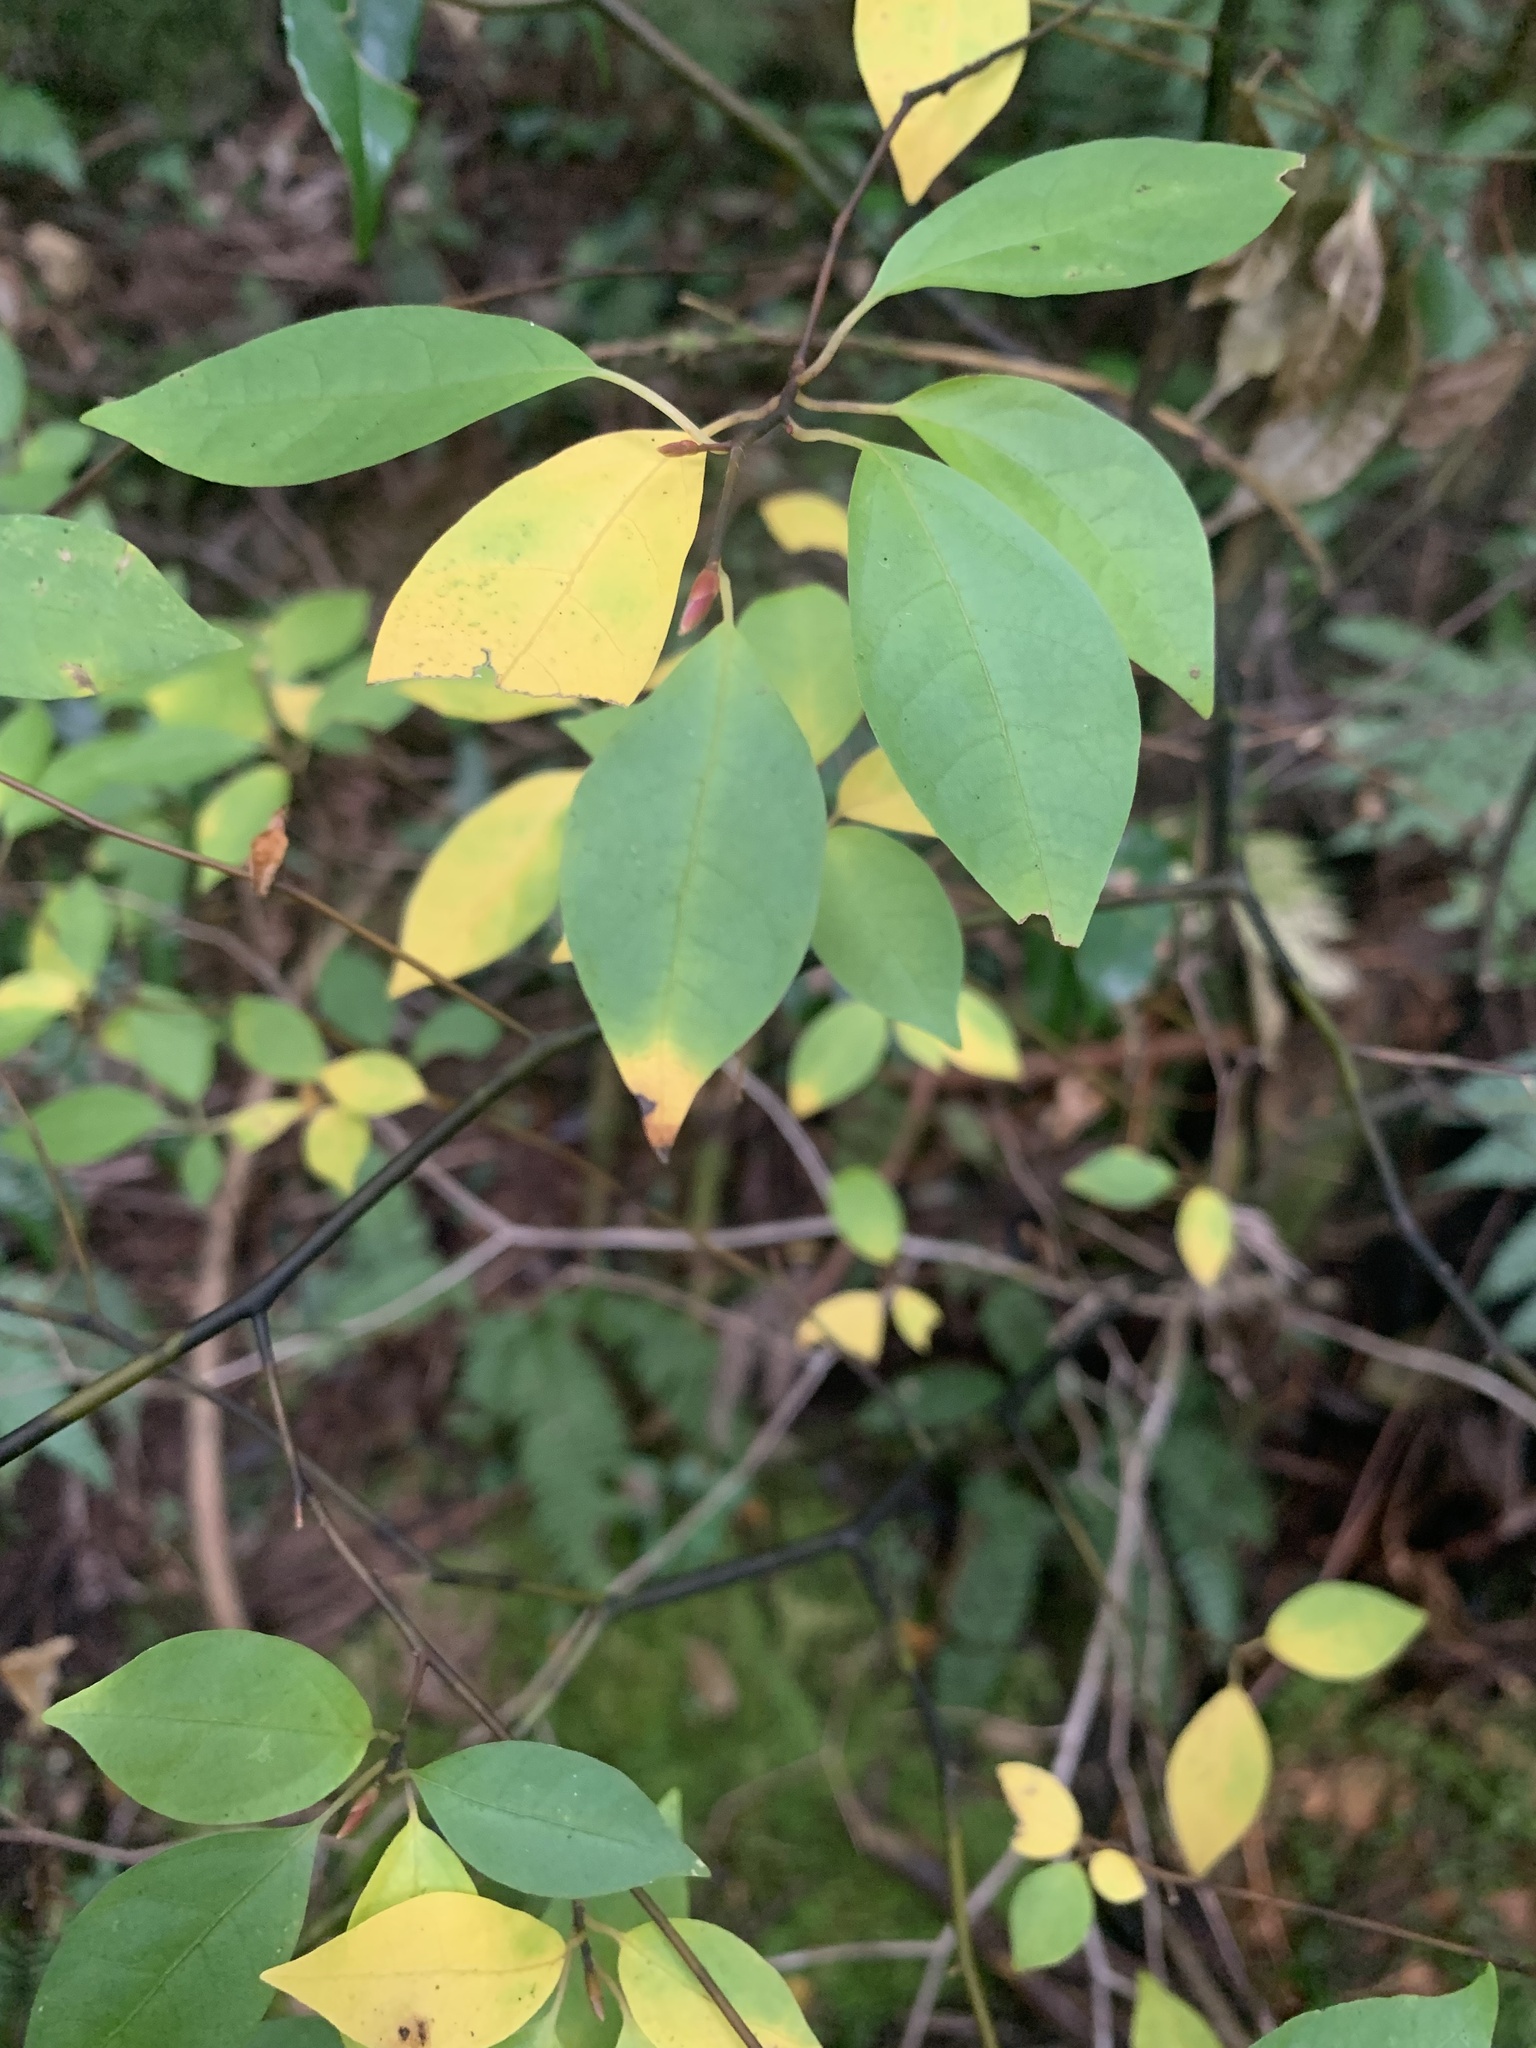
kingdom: Plantae
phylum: Tracheophyta
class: Magnoliopsida
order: Laurales
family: Lauraceae
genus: Lindera
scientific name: Lindera umbellata
